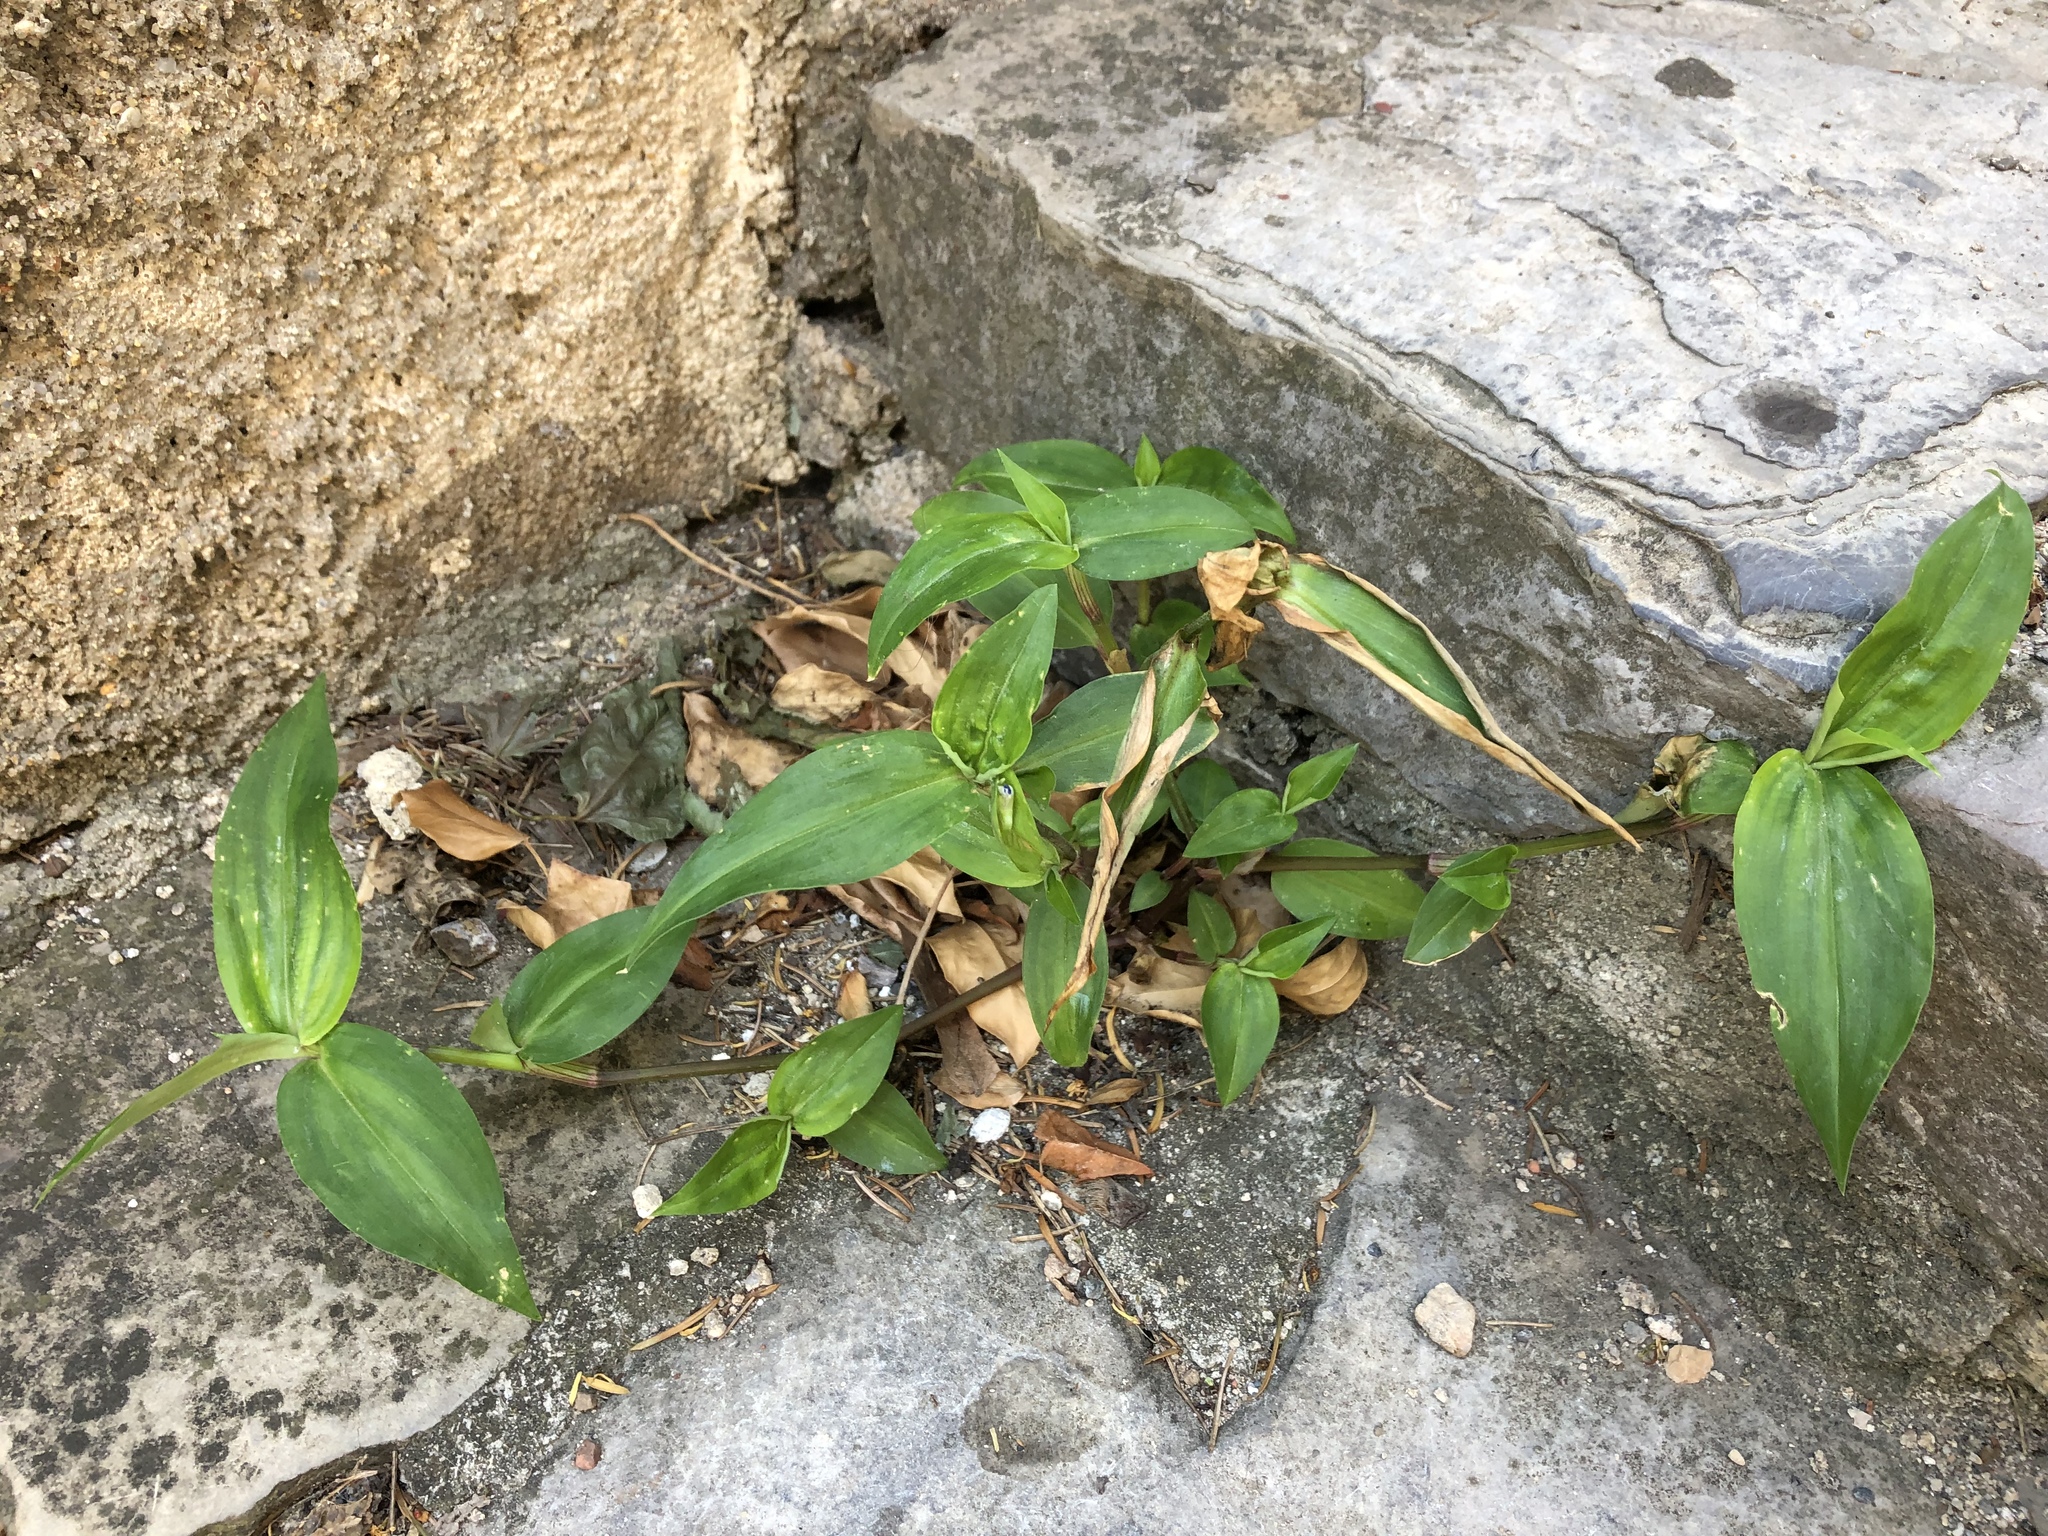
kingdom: Plantae
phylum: Tracheophyta
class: Liliopsida
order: Commelinales
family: Commelinaceae
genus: Commelina
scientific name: Commelina communis
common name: Asiatic dayflower
